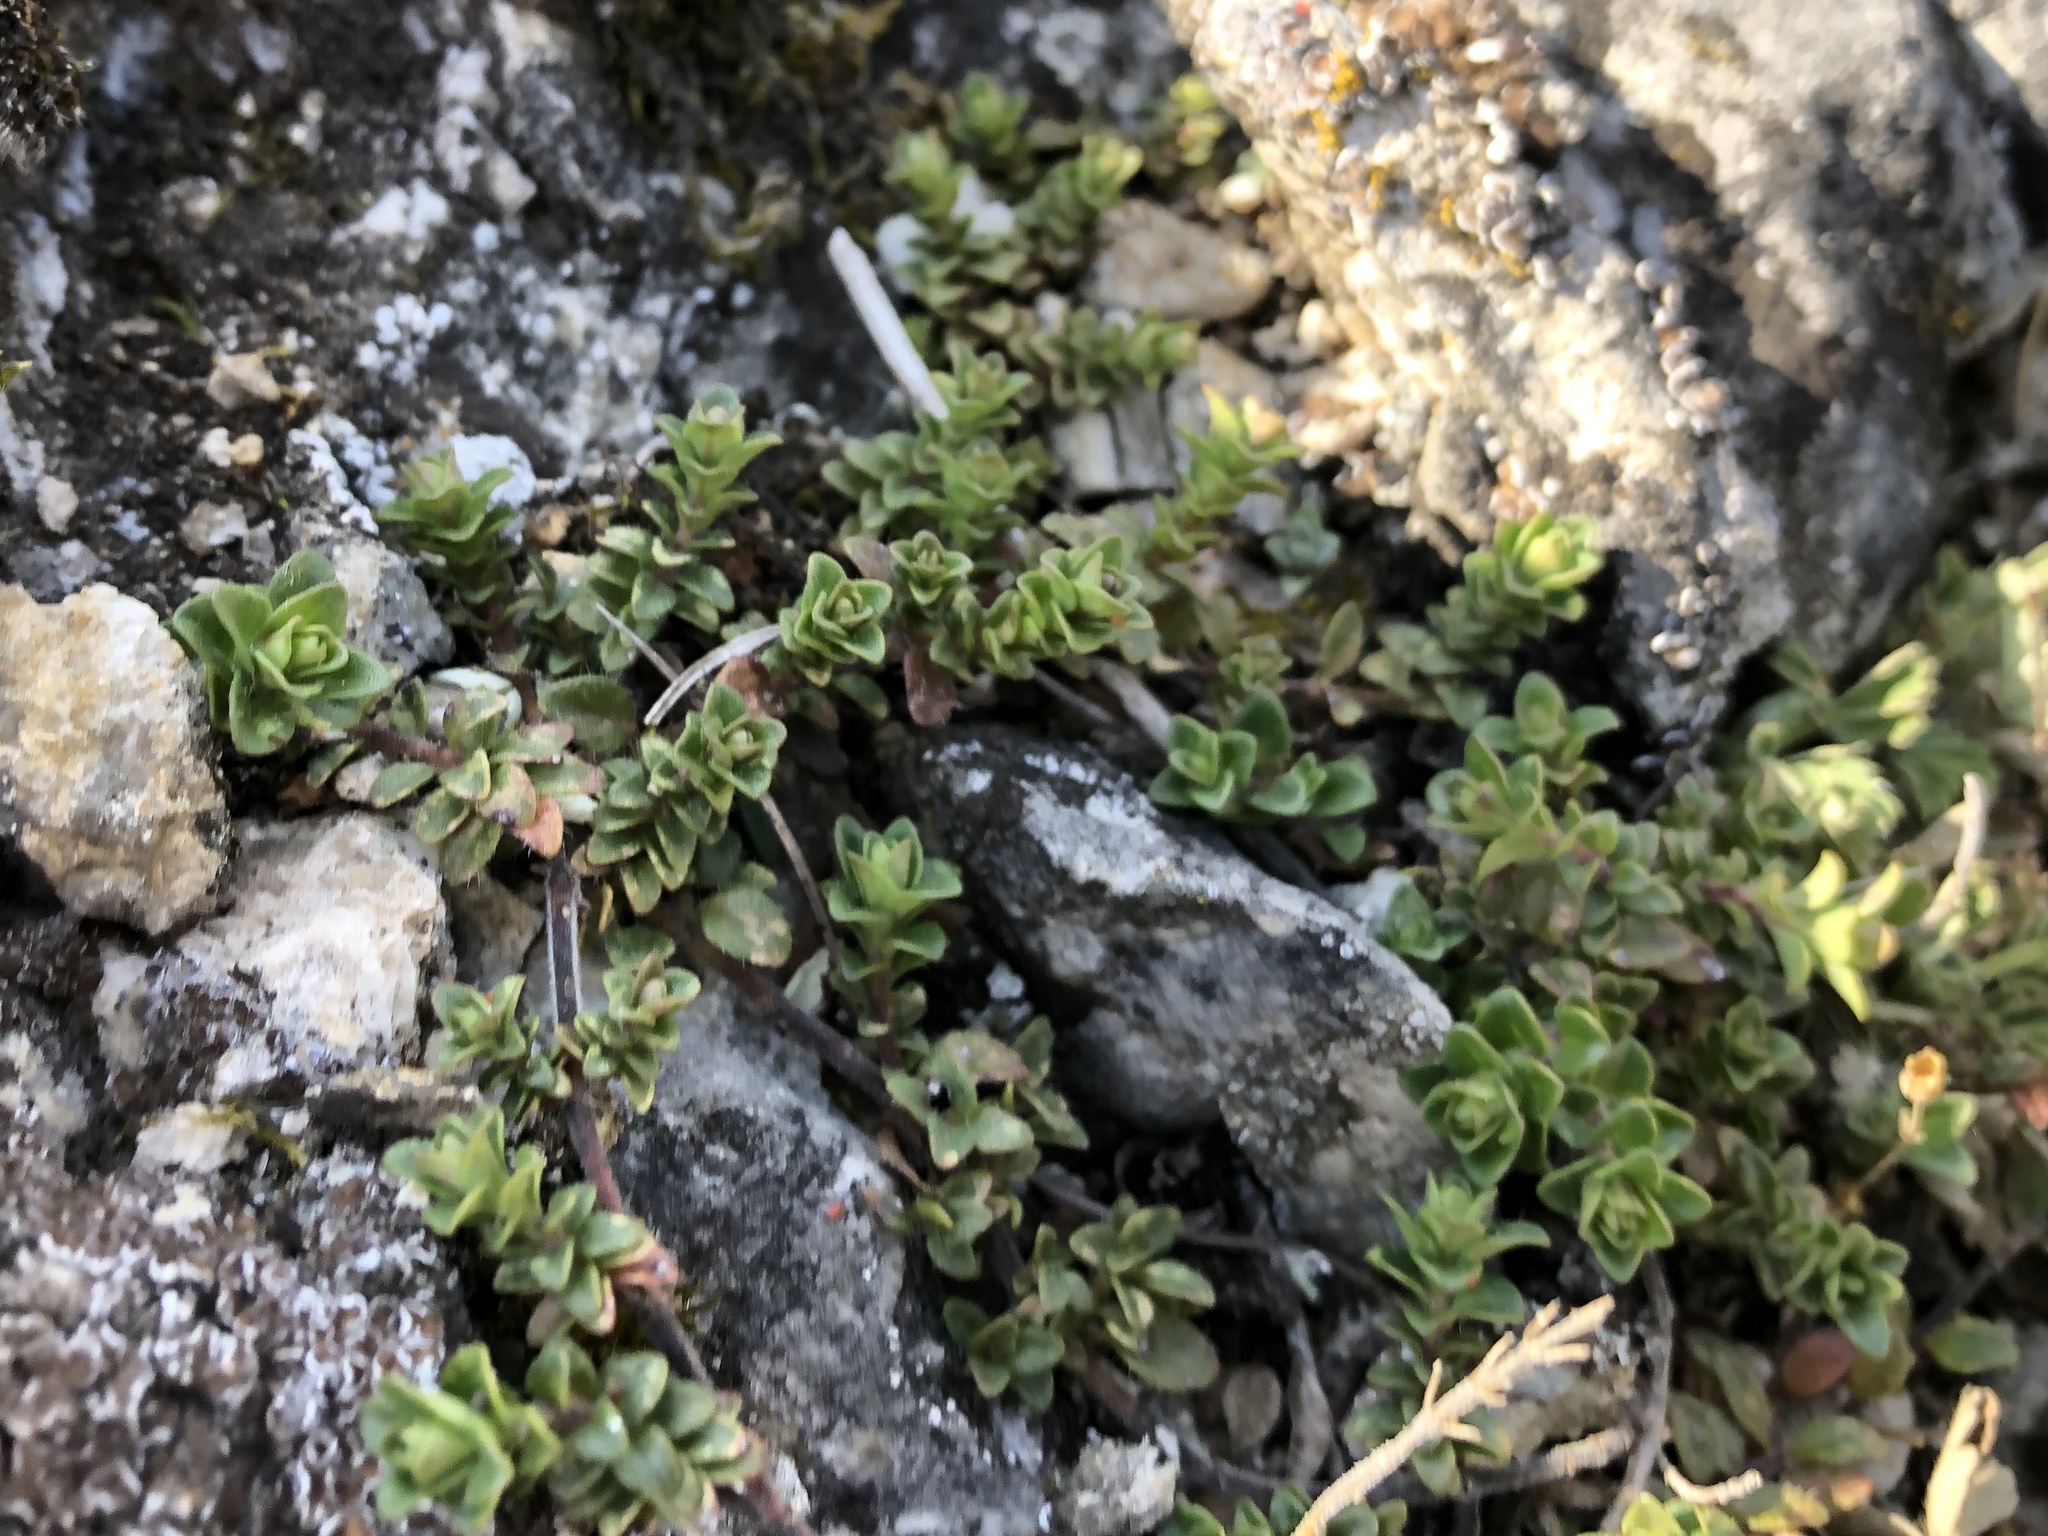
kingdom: Plantae
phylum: Tracheophyta
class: Magnoliopsida
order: Lamiales
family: Lamiaceae
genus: Thymus
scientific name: Thymus praecox
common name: Wild thyme
